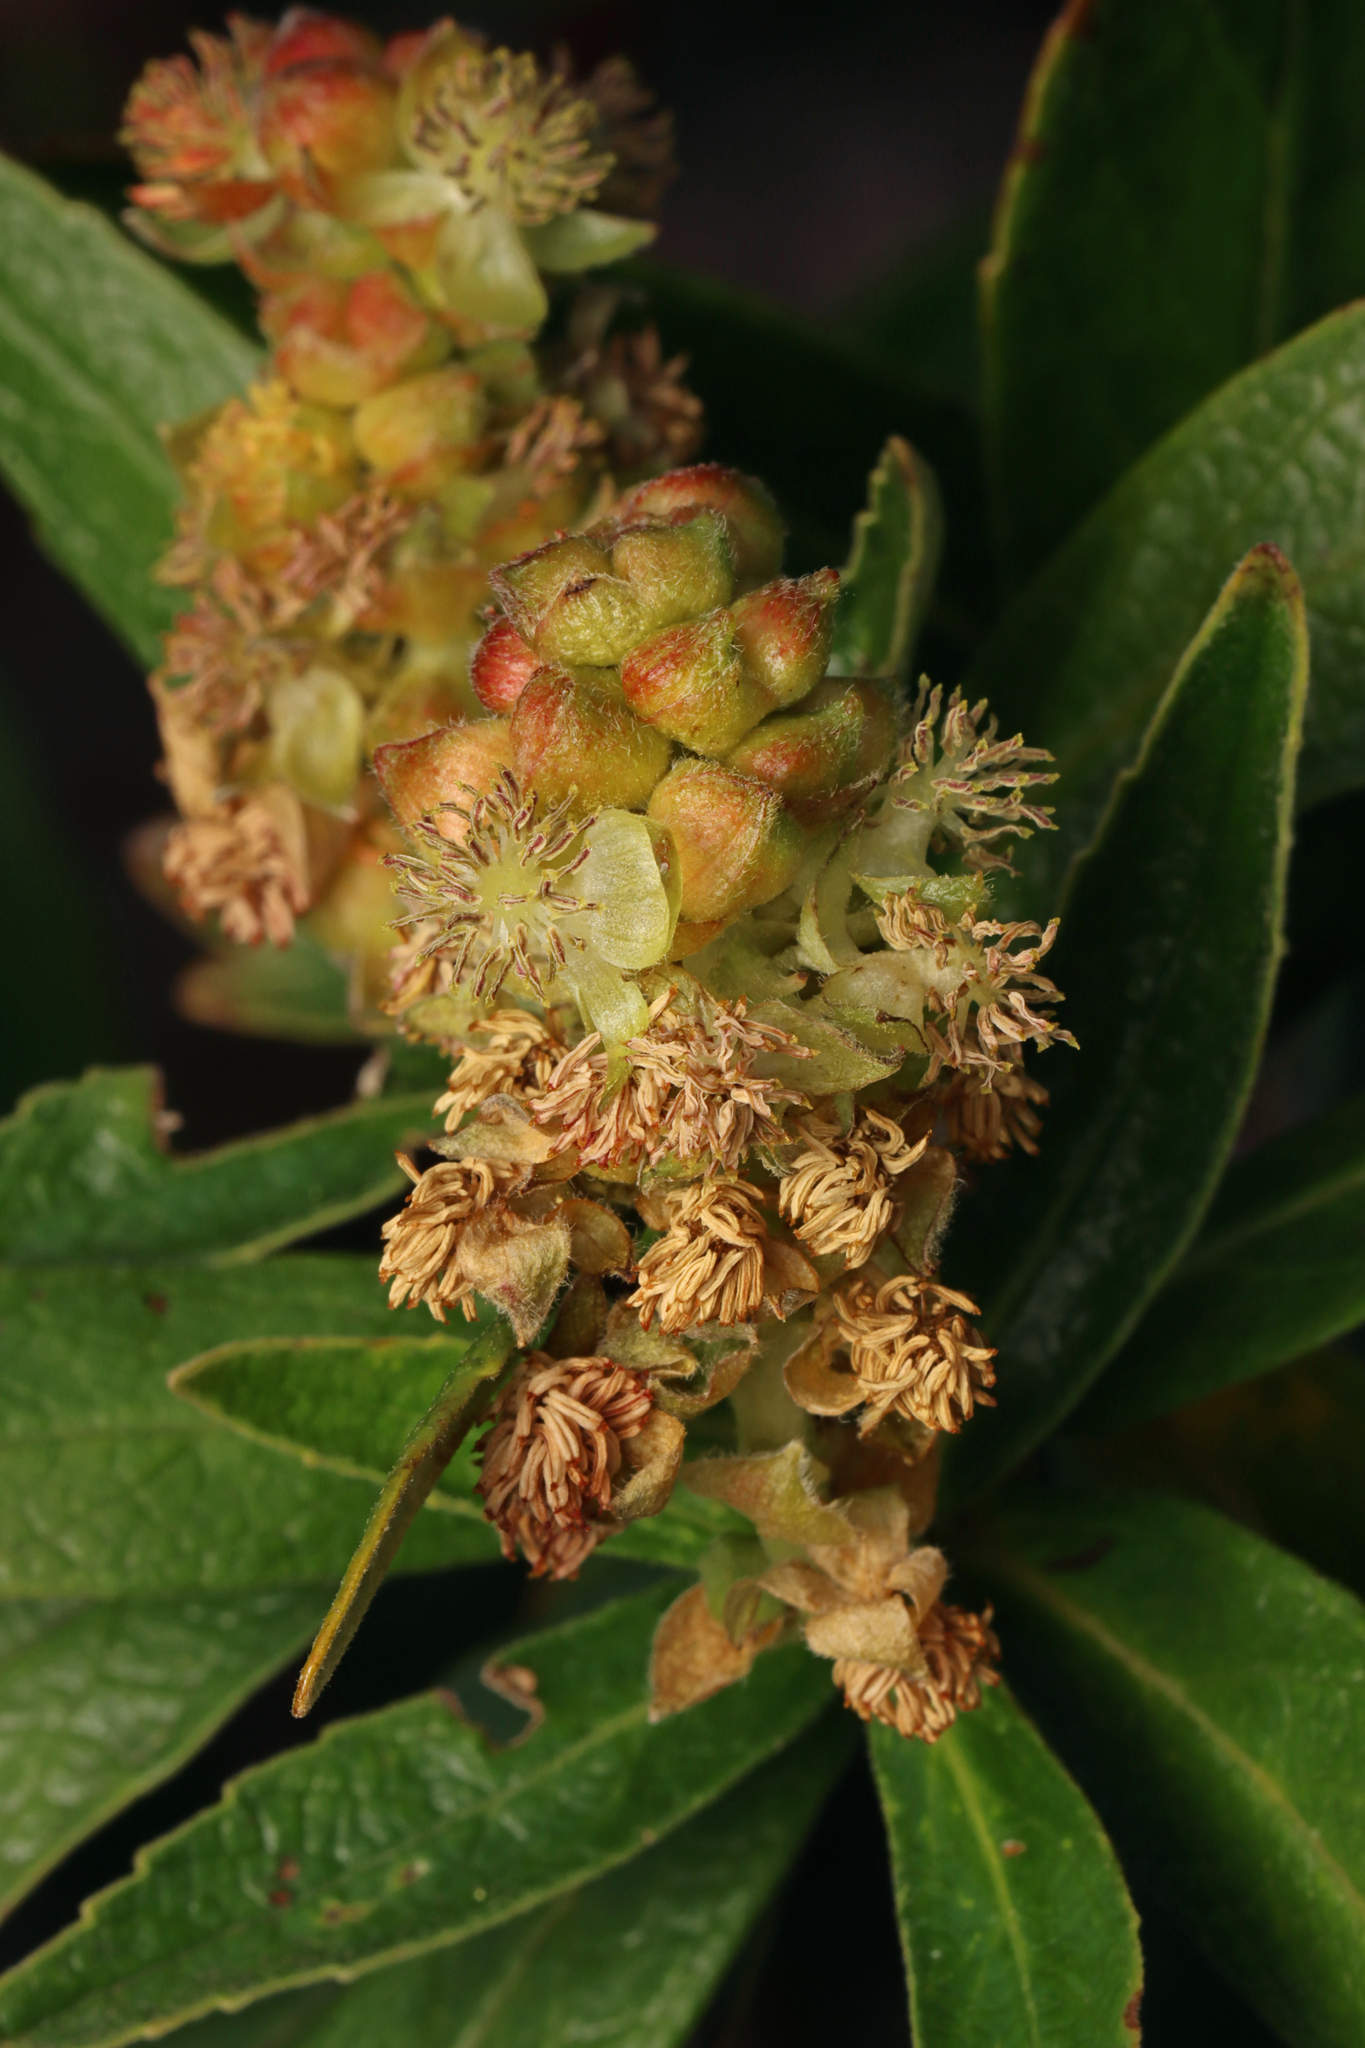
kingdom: Plantae
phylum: Tracheophyta
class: Magnoliopsida
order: Malpighiales
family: Euphorbiaceae
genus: Adriana
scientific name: Adriana quadripartita
